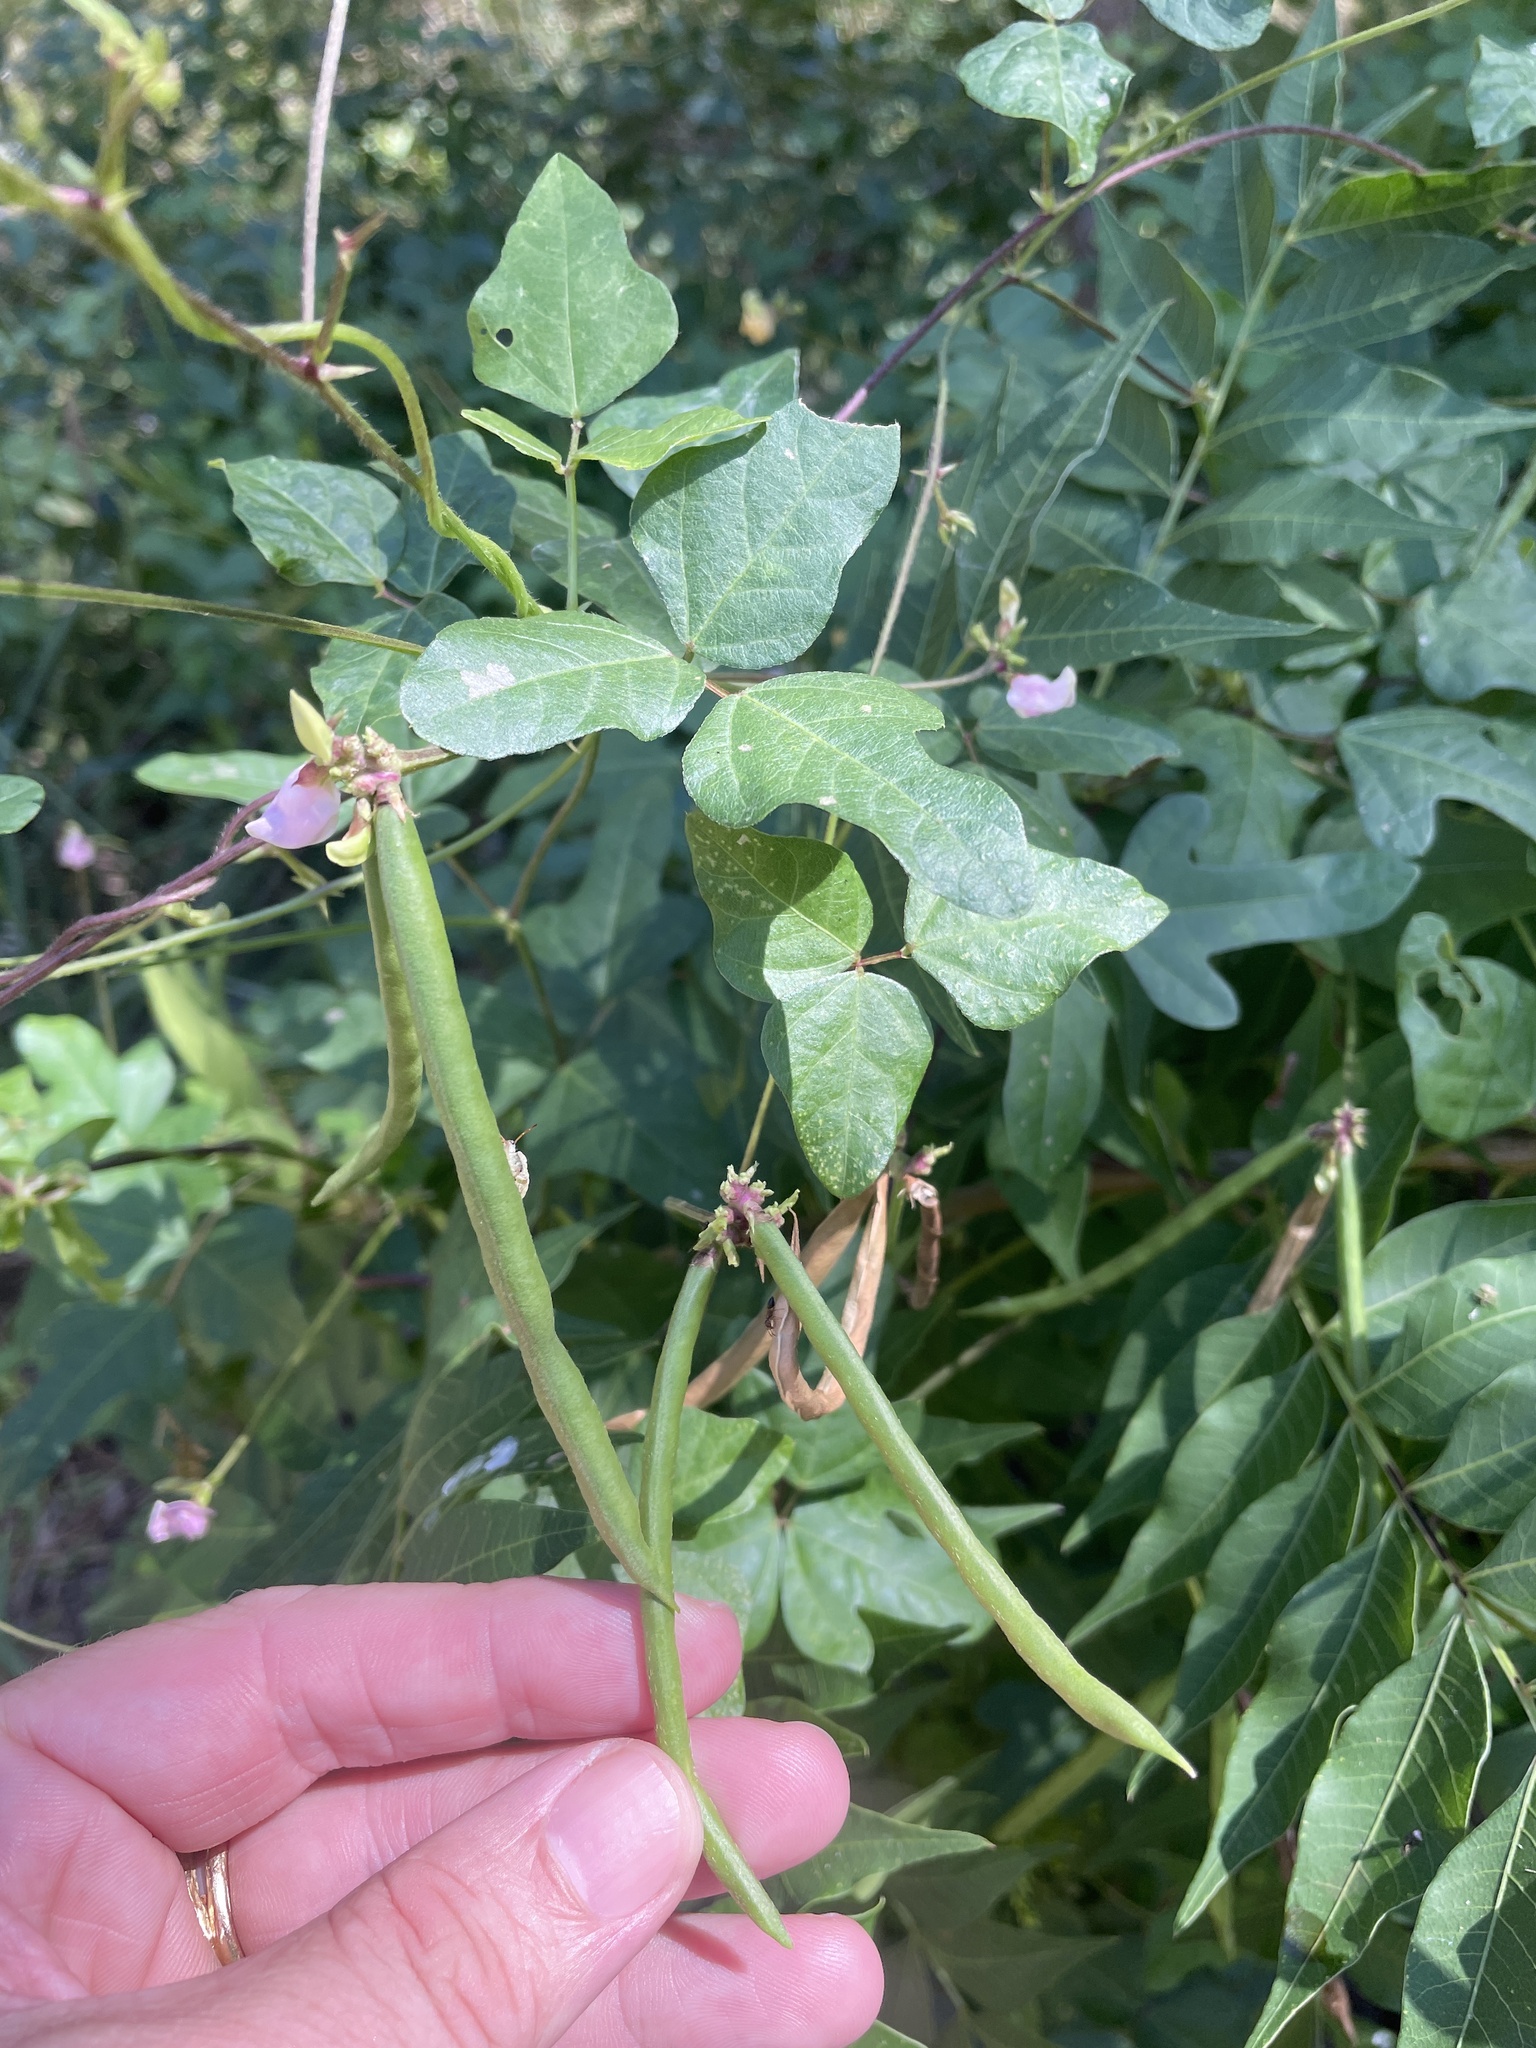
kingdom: Plantae
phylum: Tracheophyta
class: Magnoliopsida
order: Fabales
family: Fabaceae
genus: Strophostyles
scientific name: Strophostyles helvola
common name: Trailing wild bean
